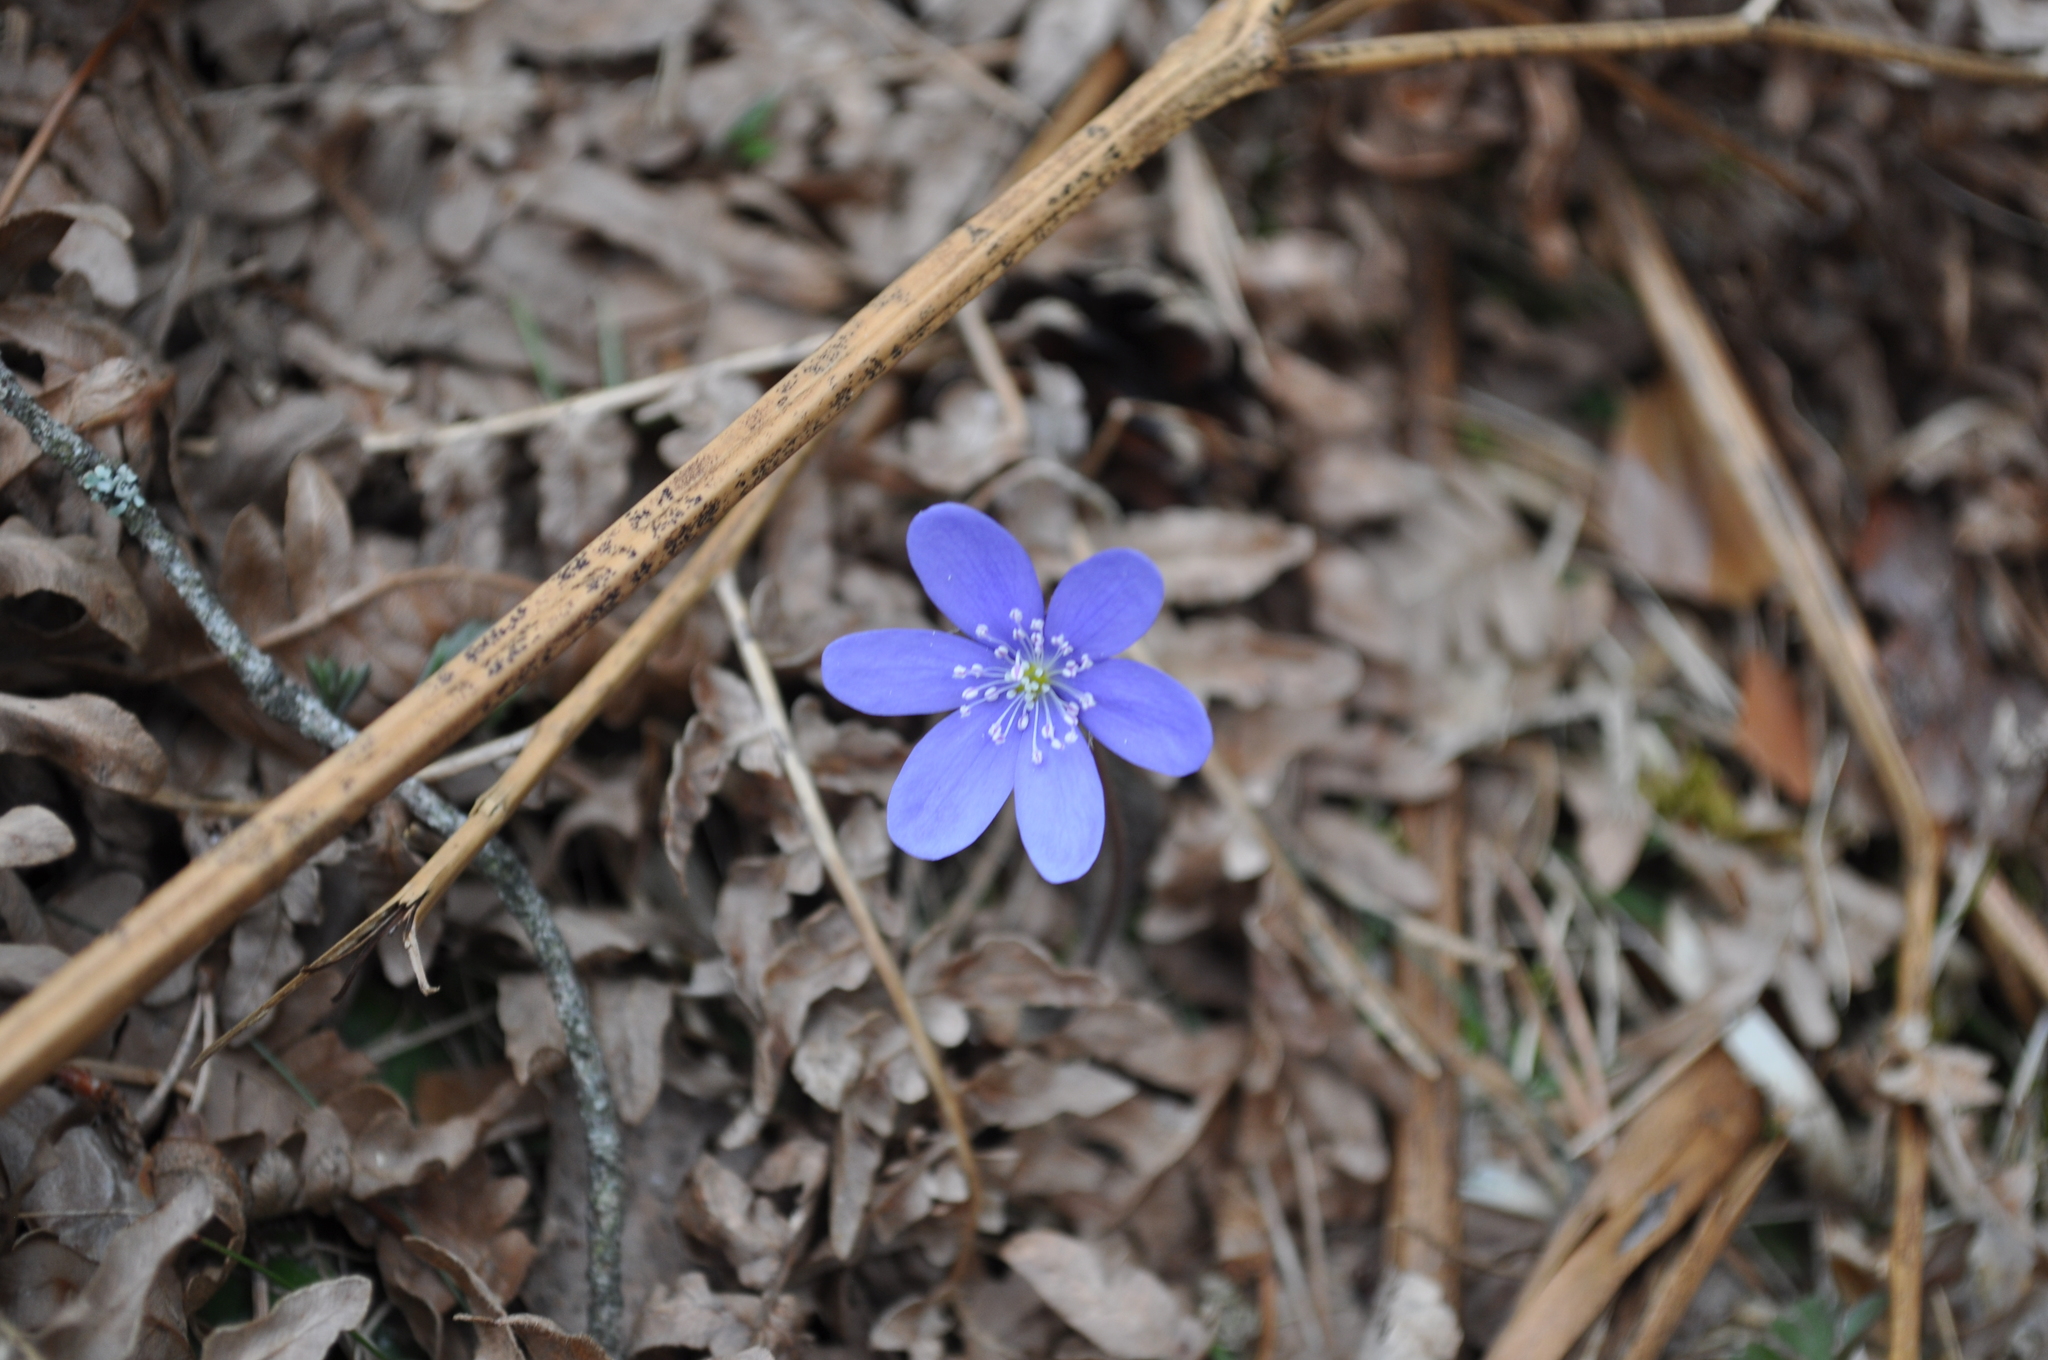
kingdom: Plantae
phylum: Tracheophyta
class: Magnoliopsida
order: Ranunculales
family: Ranunculaceae
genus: Hepatica
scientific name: Hepatica nobilis
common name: Liverleaf
